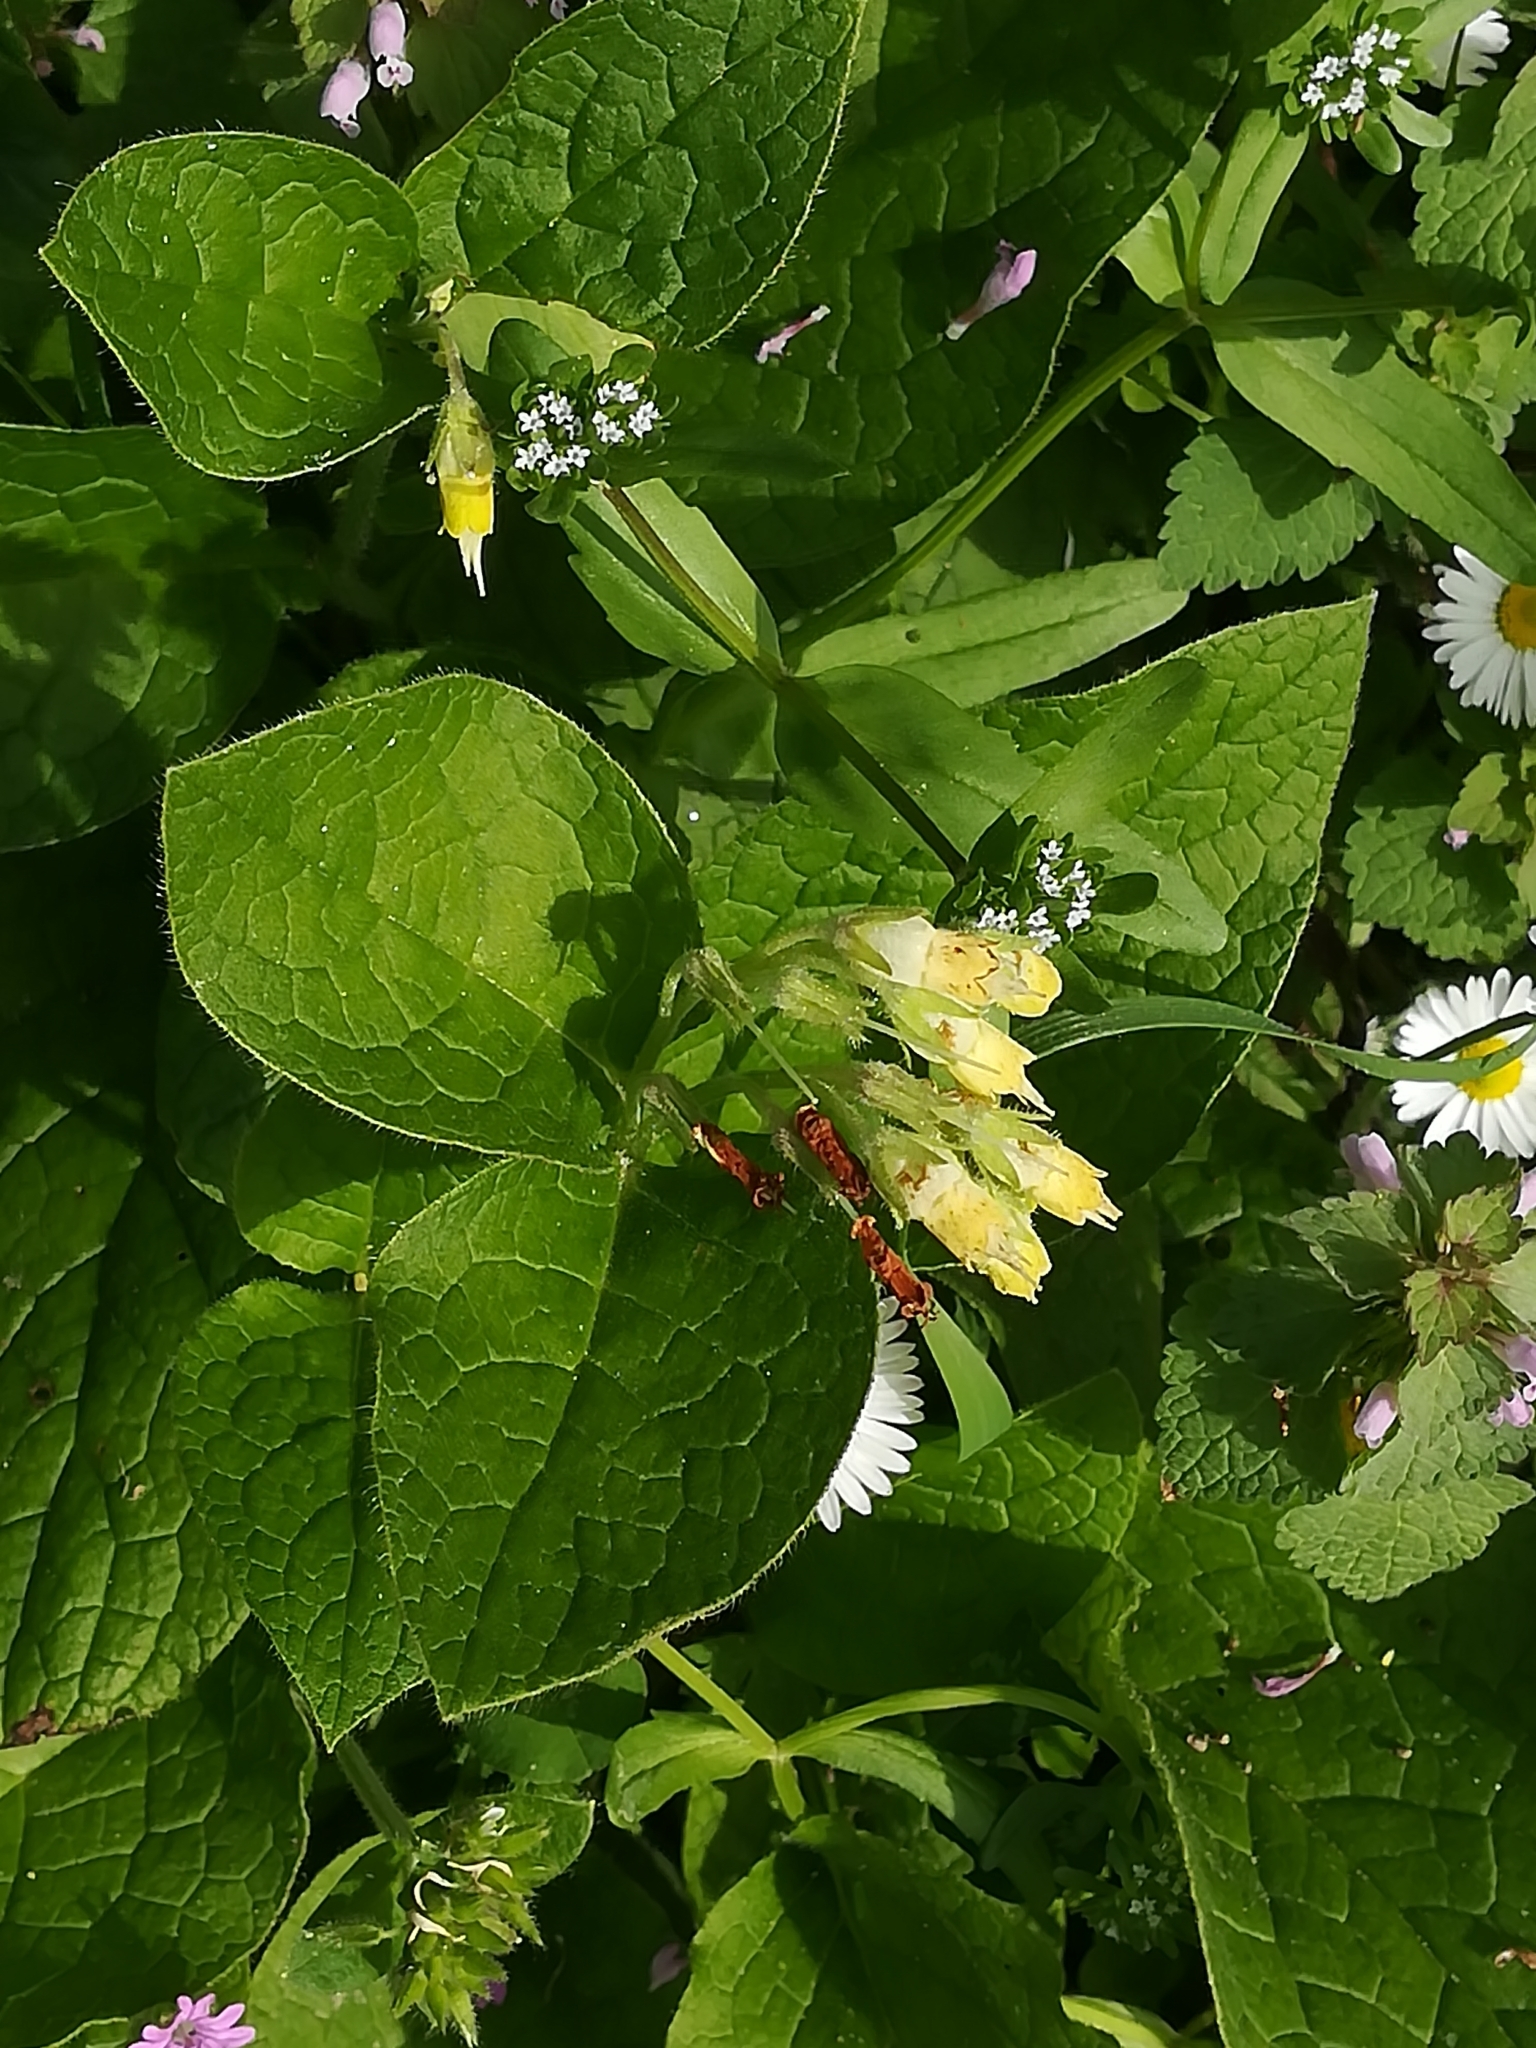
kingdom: Plantae
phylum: Tracheophyta
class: Magnoliopsida
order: Boraginales
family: Boraginaceae
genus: Symphytum
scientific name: Symphytum bulbosum
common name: Bulbous comfrey
